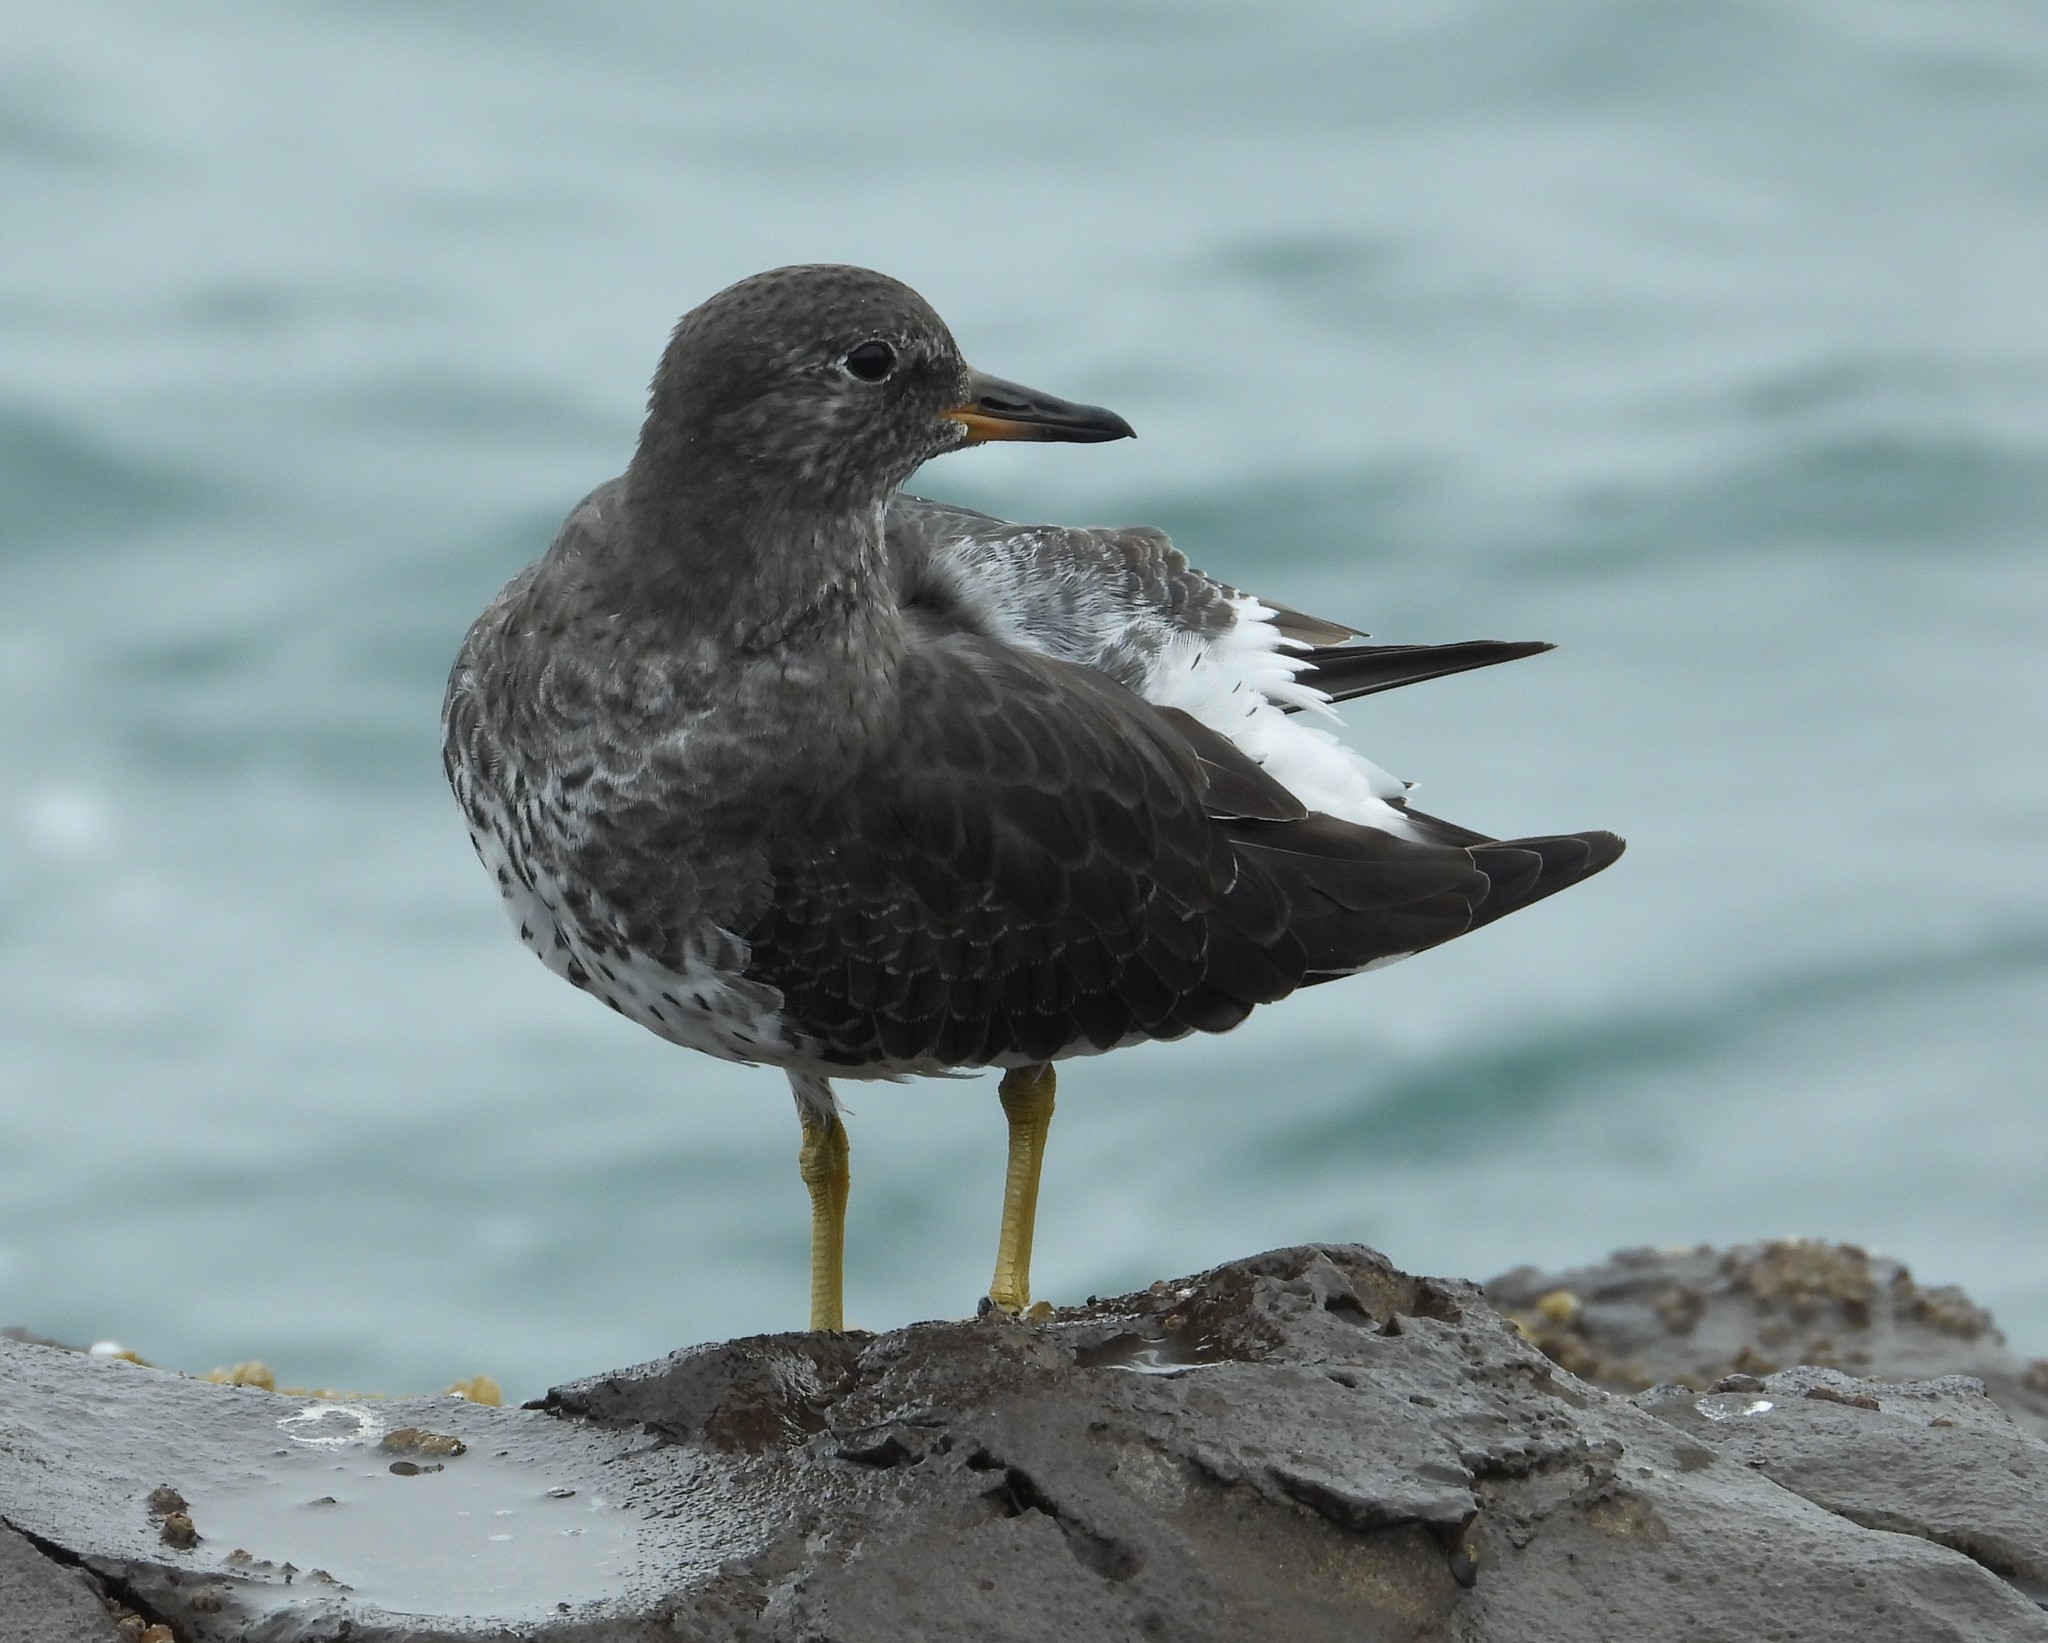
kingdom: Animalia
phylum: Chordata
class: Aves
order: Charadriiformes
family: Scolopacidae
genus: Calidris
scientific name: Calidris virgata
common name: Surfbird
